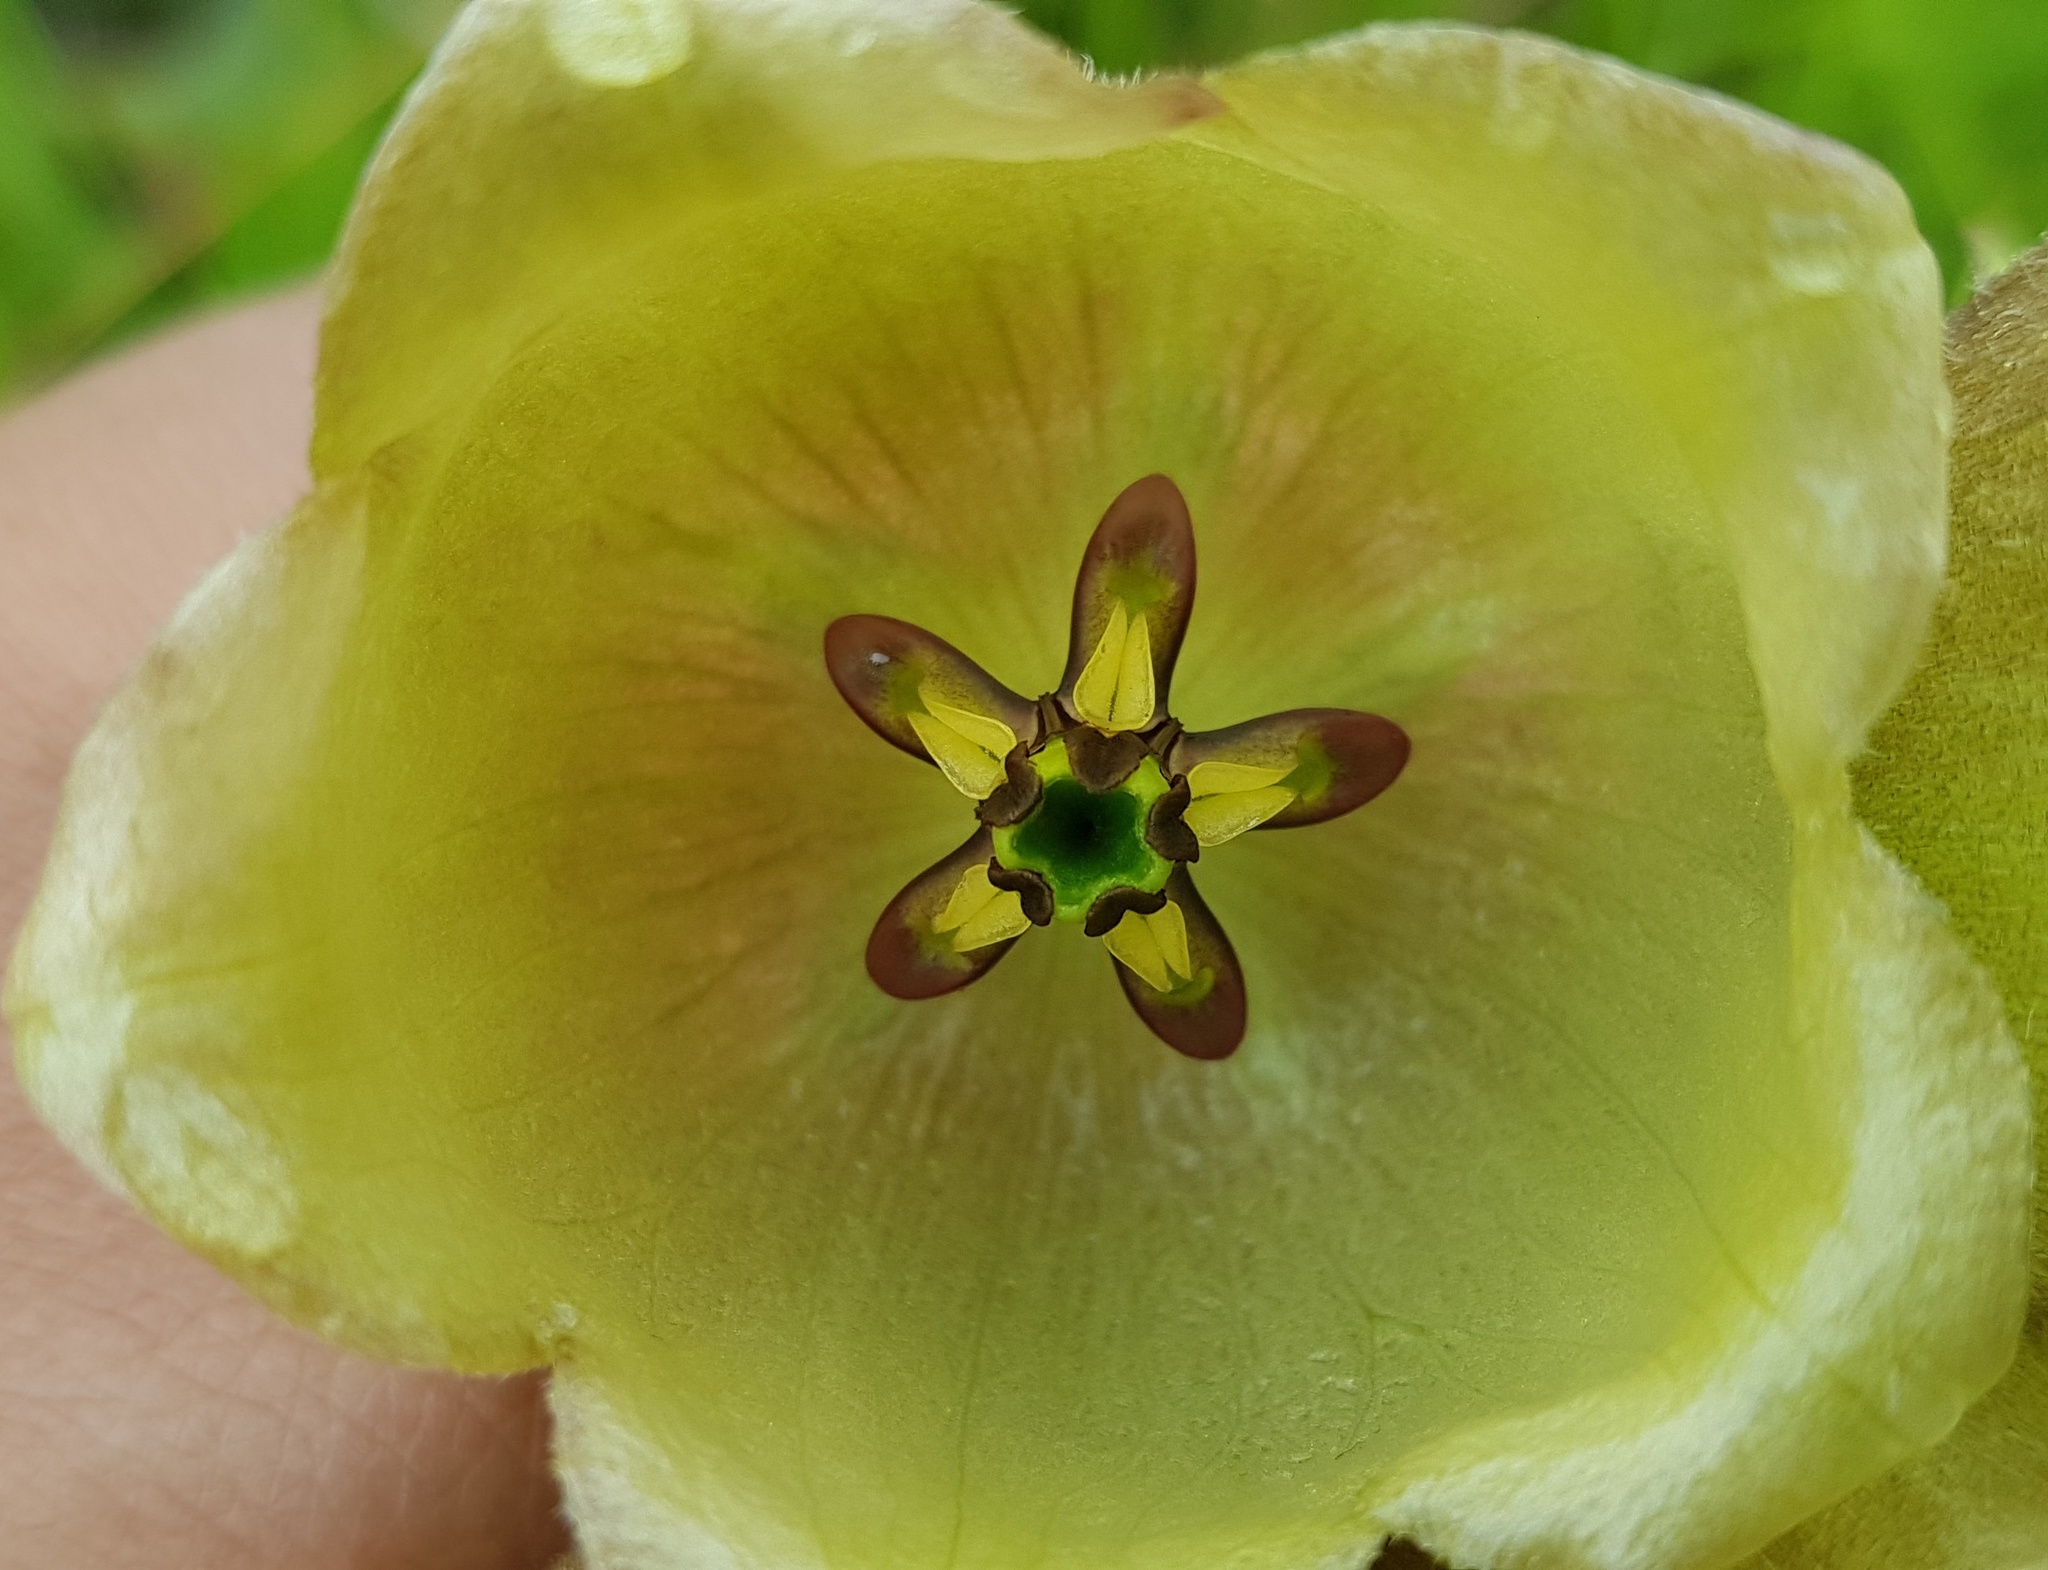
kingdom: Plantae
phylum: Tracheophyta
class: Magnoliopsida
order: Gentianales
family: Apocynaceae
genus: Pachycarpus
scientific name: Pachycarpus campanulatus
